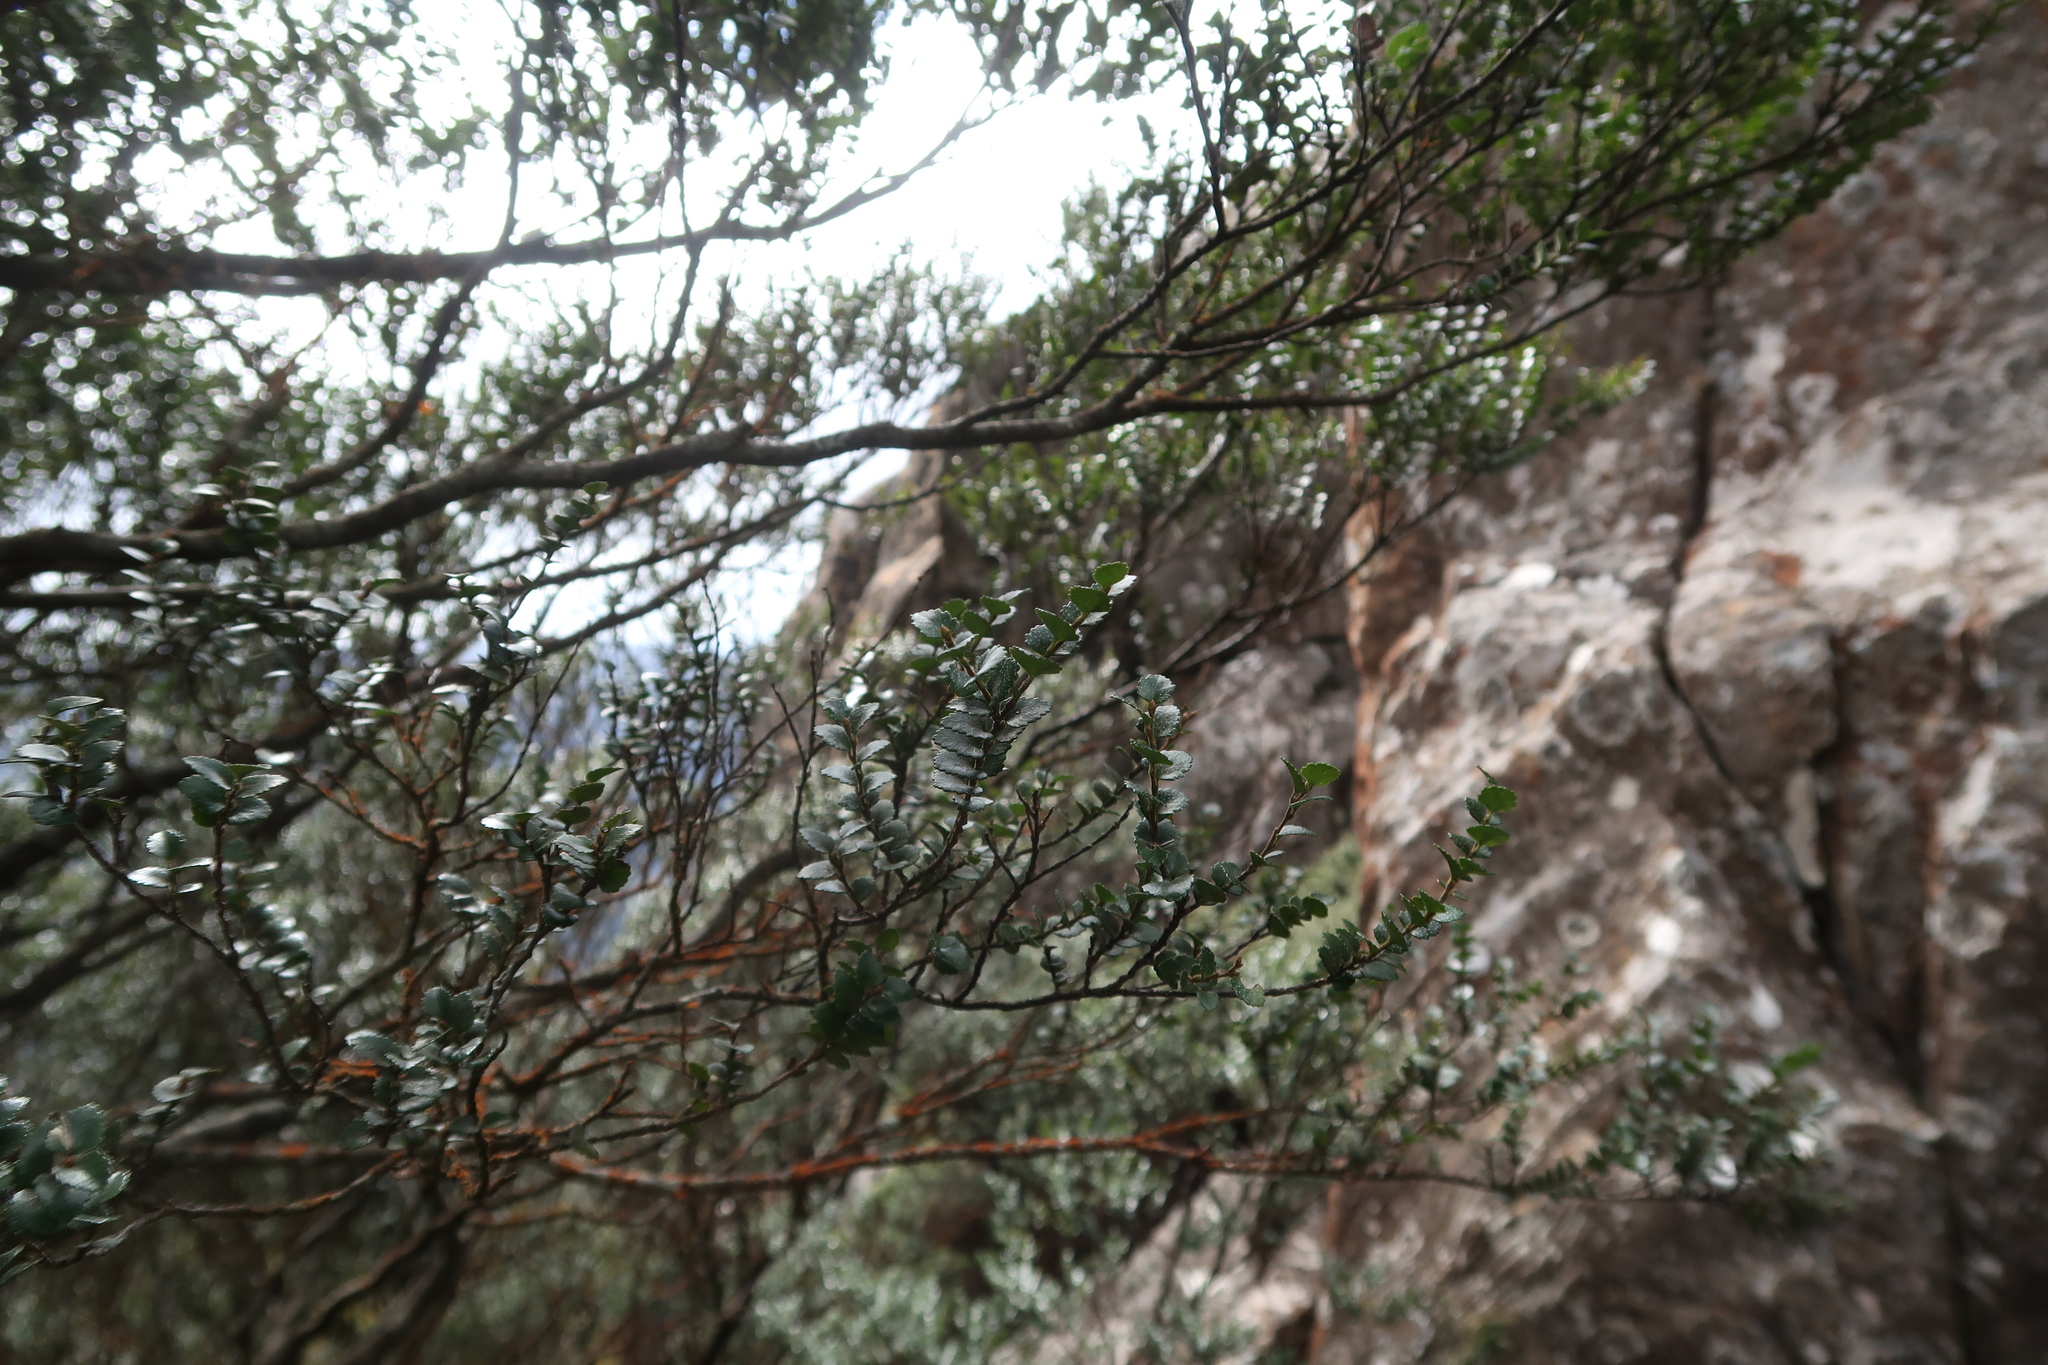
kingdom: Plantae
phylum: Tracheophyta
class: Magnoliopsida
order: Fagales
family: Nothofagaceae
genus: Nothofagus
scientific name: Nothofagus cunninghamii
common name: Myrtle beech
